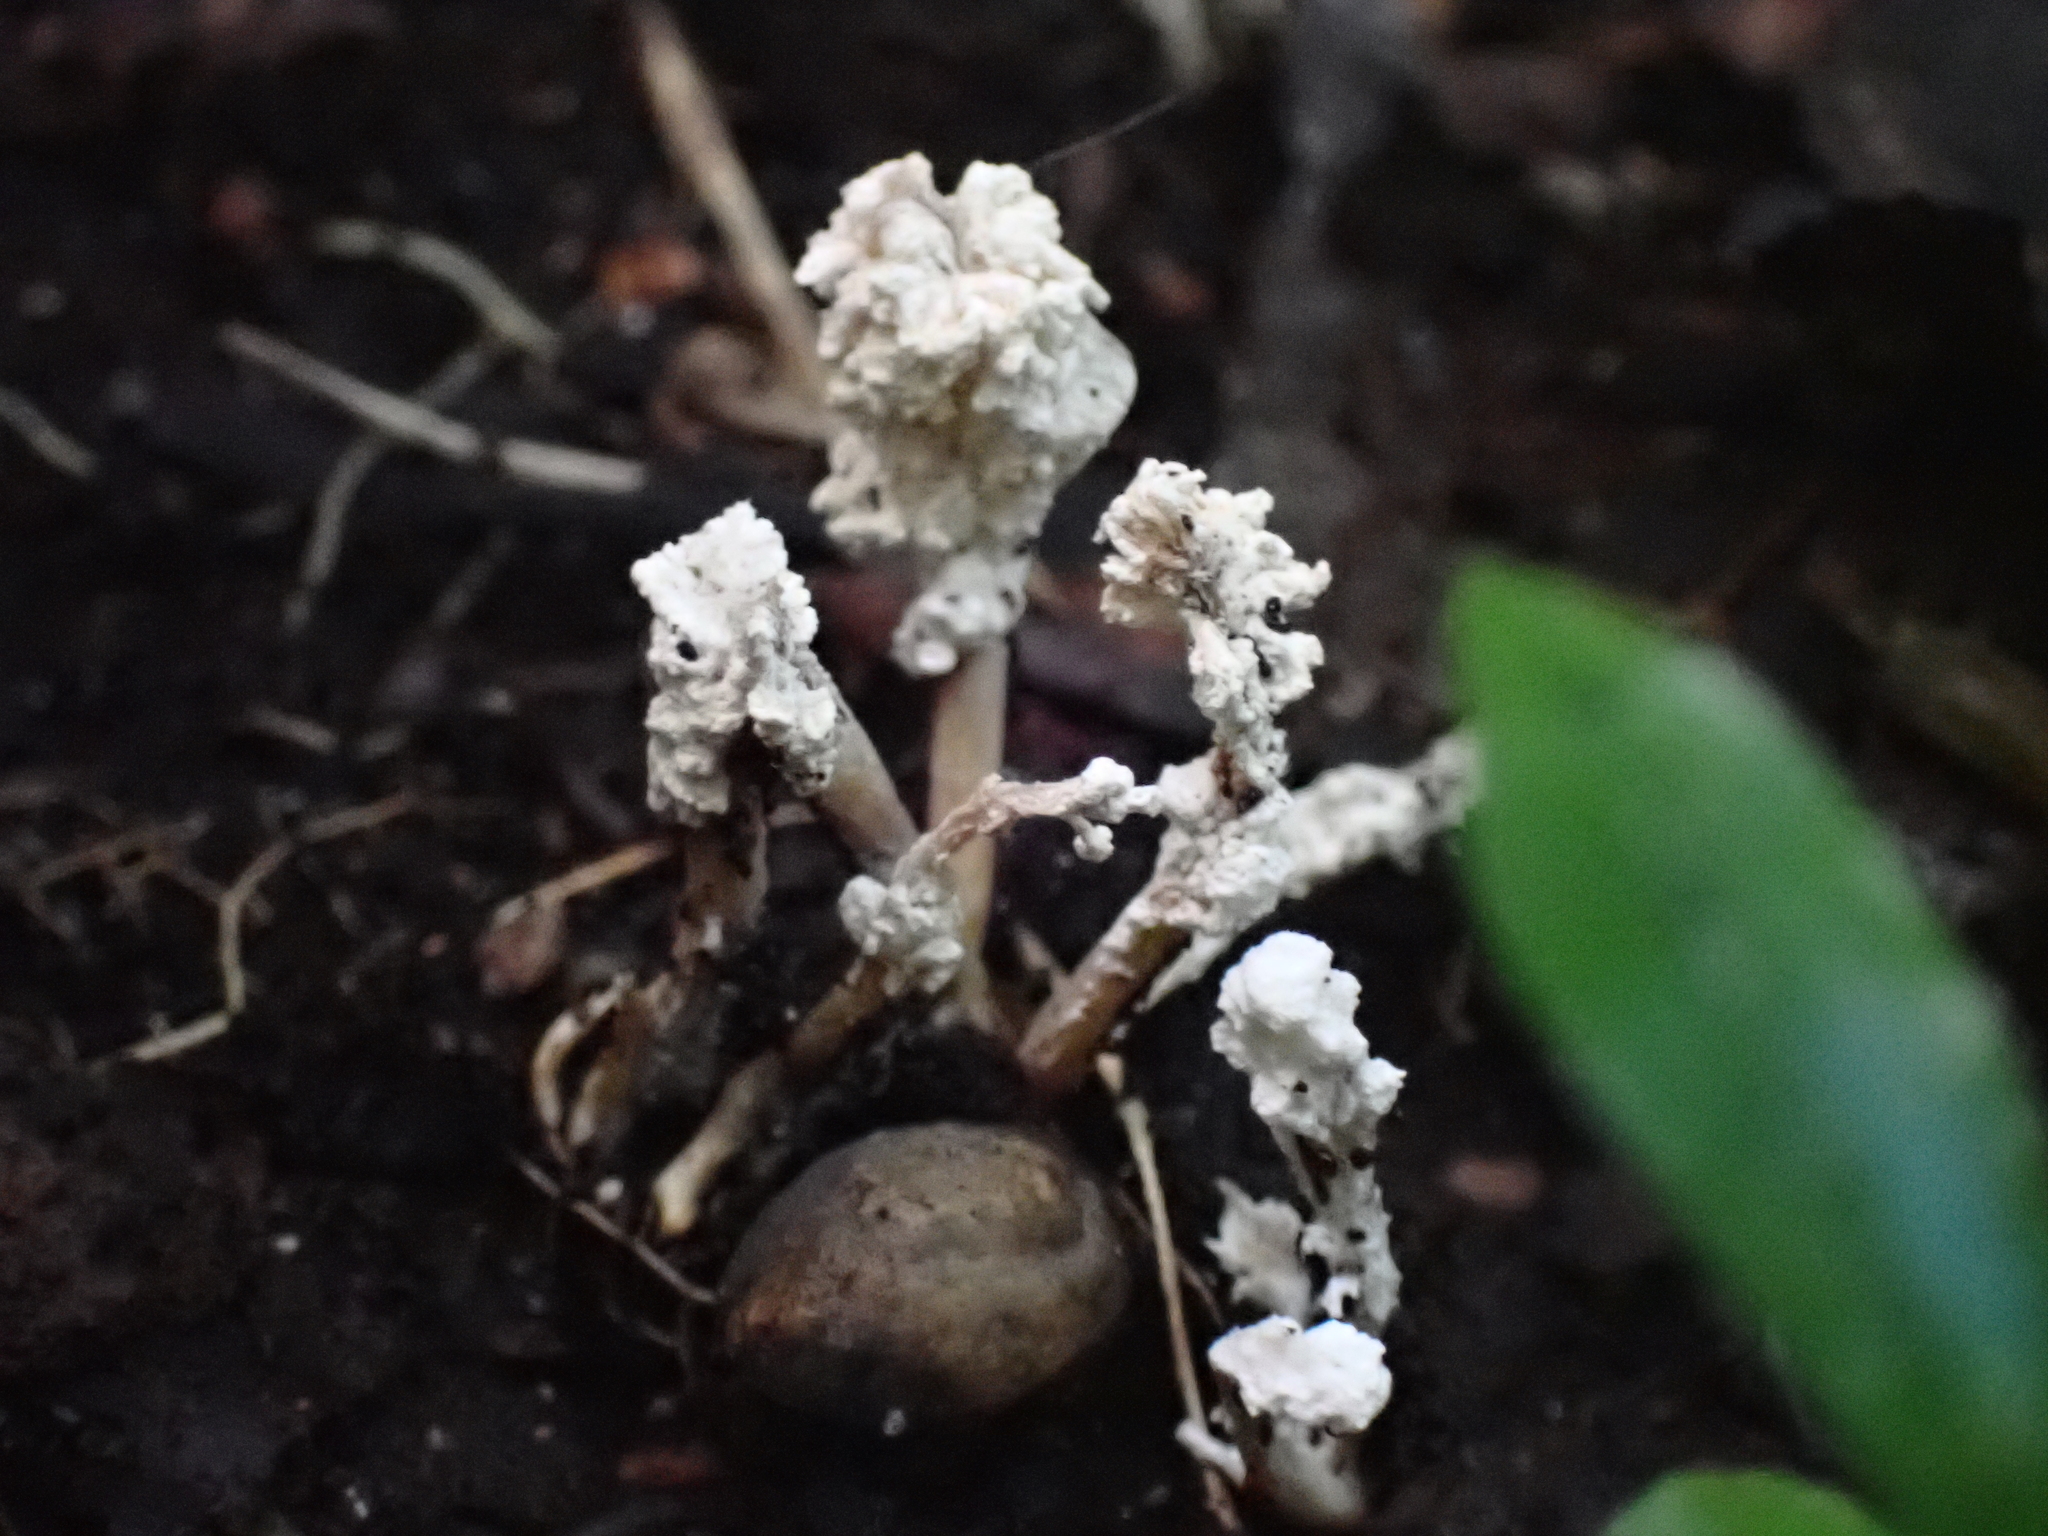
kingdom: Fungi
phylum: Ascomycota
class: Sordariomycetes
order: Hypocreales
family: Cordycipitaceae
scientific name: Cordycipitaceae
